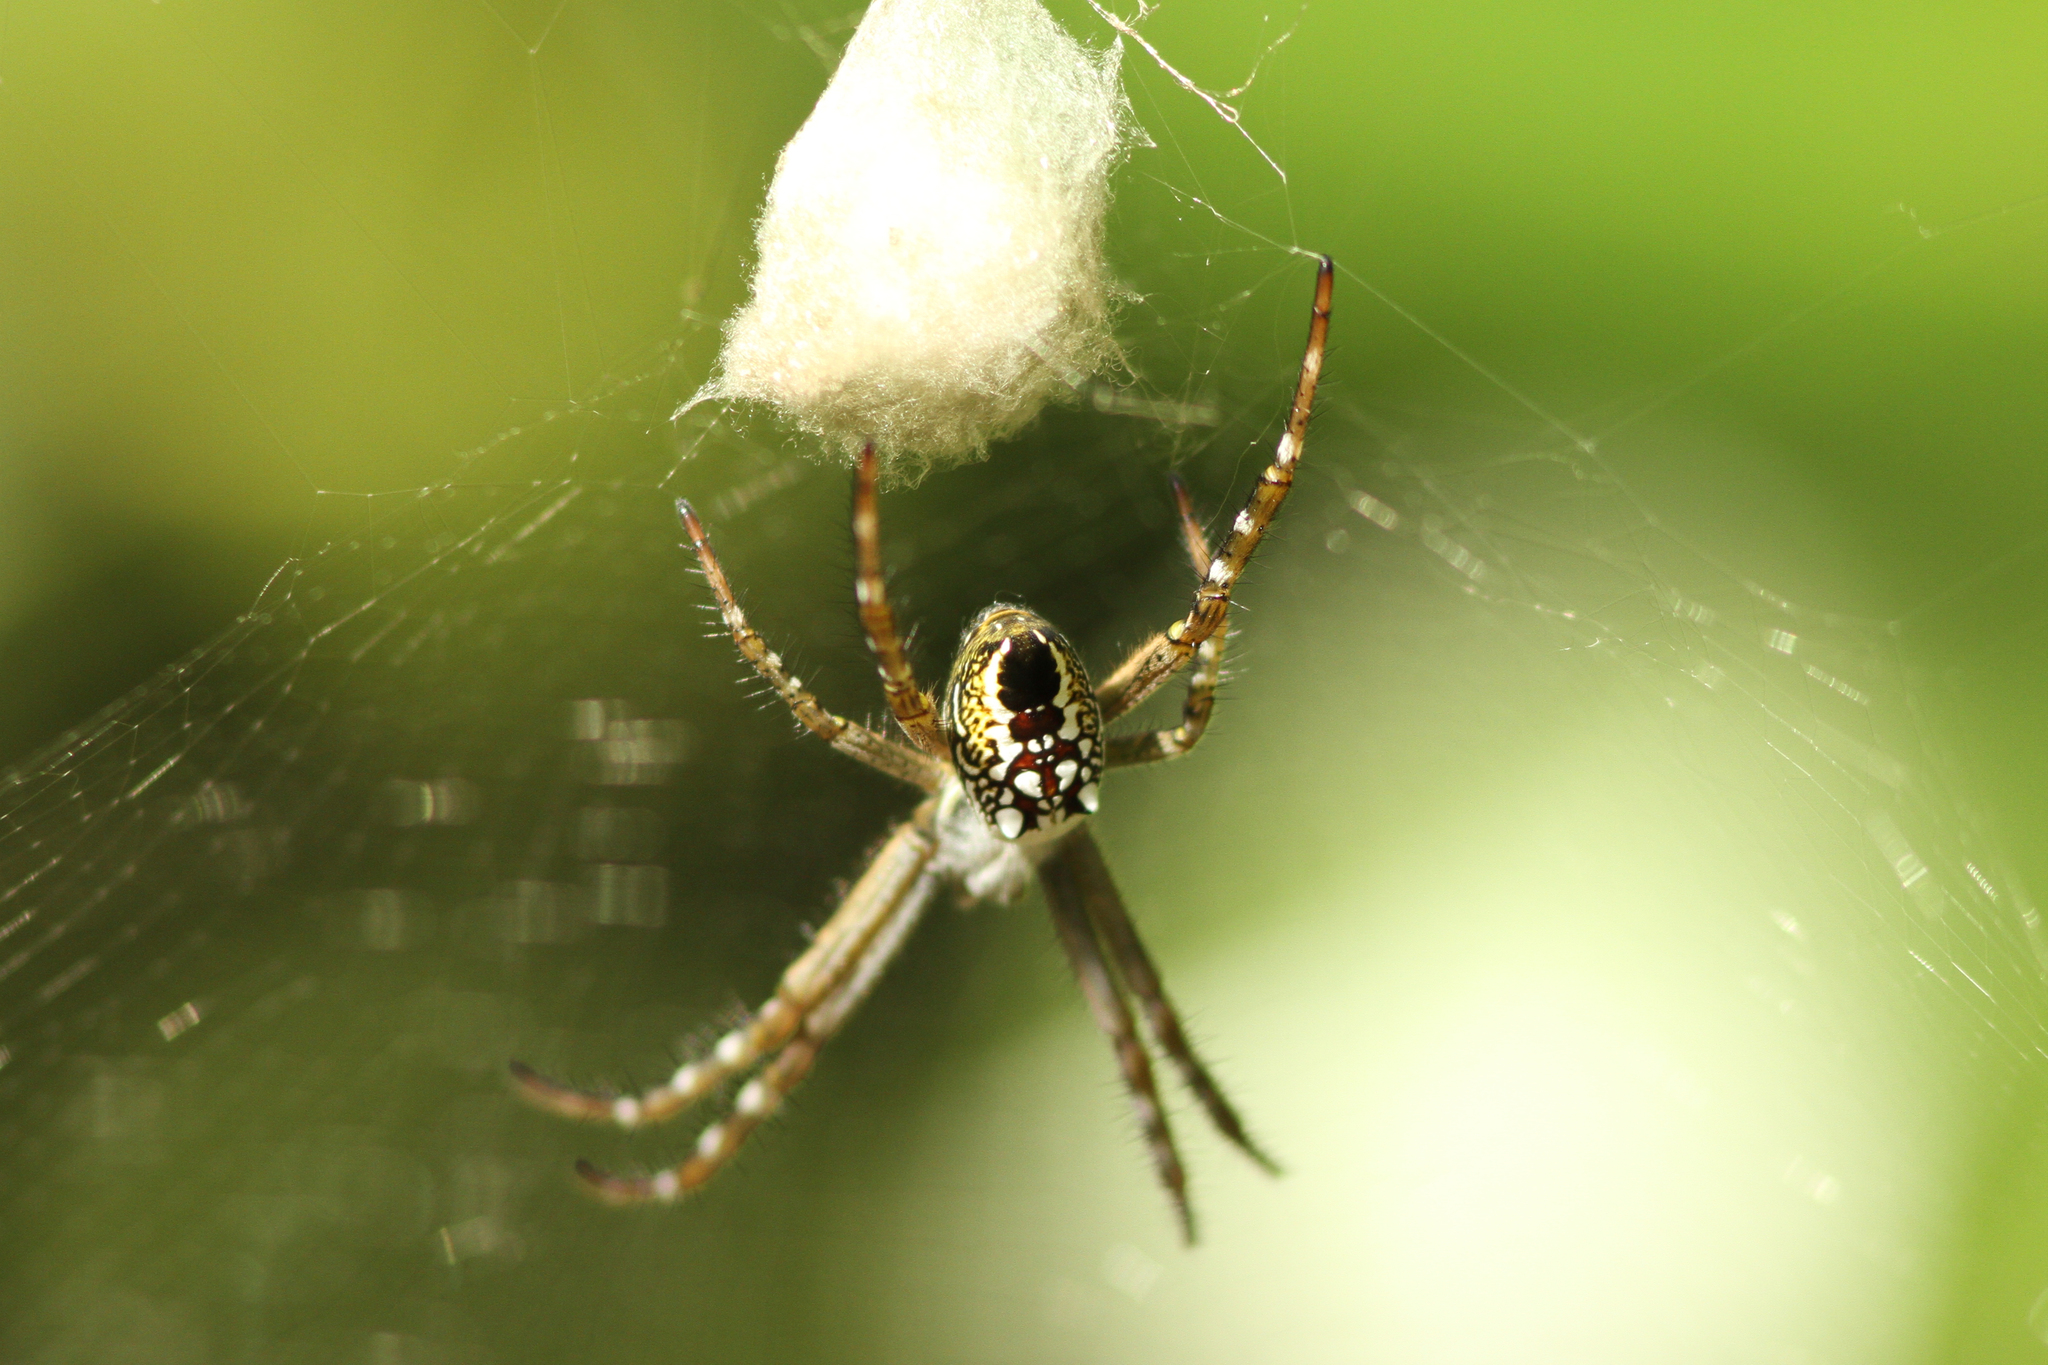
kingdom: Chromista
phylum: Ochrophyta
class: Dictyochophyceae
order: Pedinellales
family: Cyrtophoraceae
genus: Cyrtophora
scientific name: Cyrtophora moluccensis
